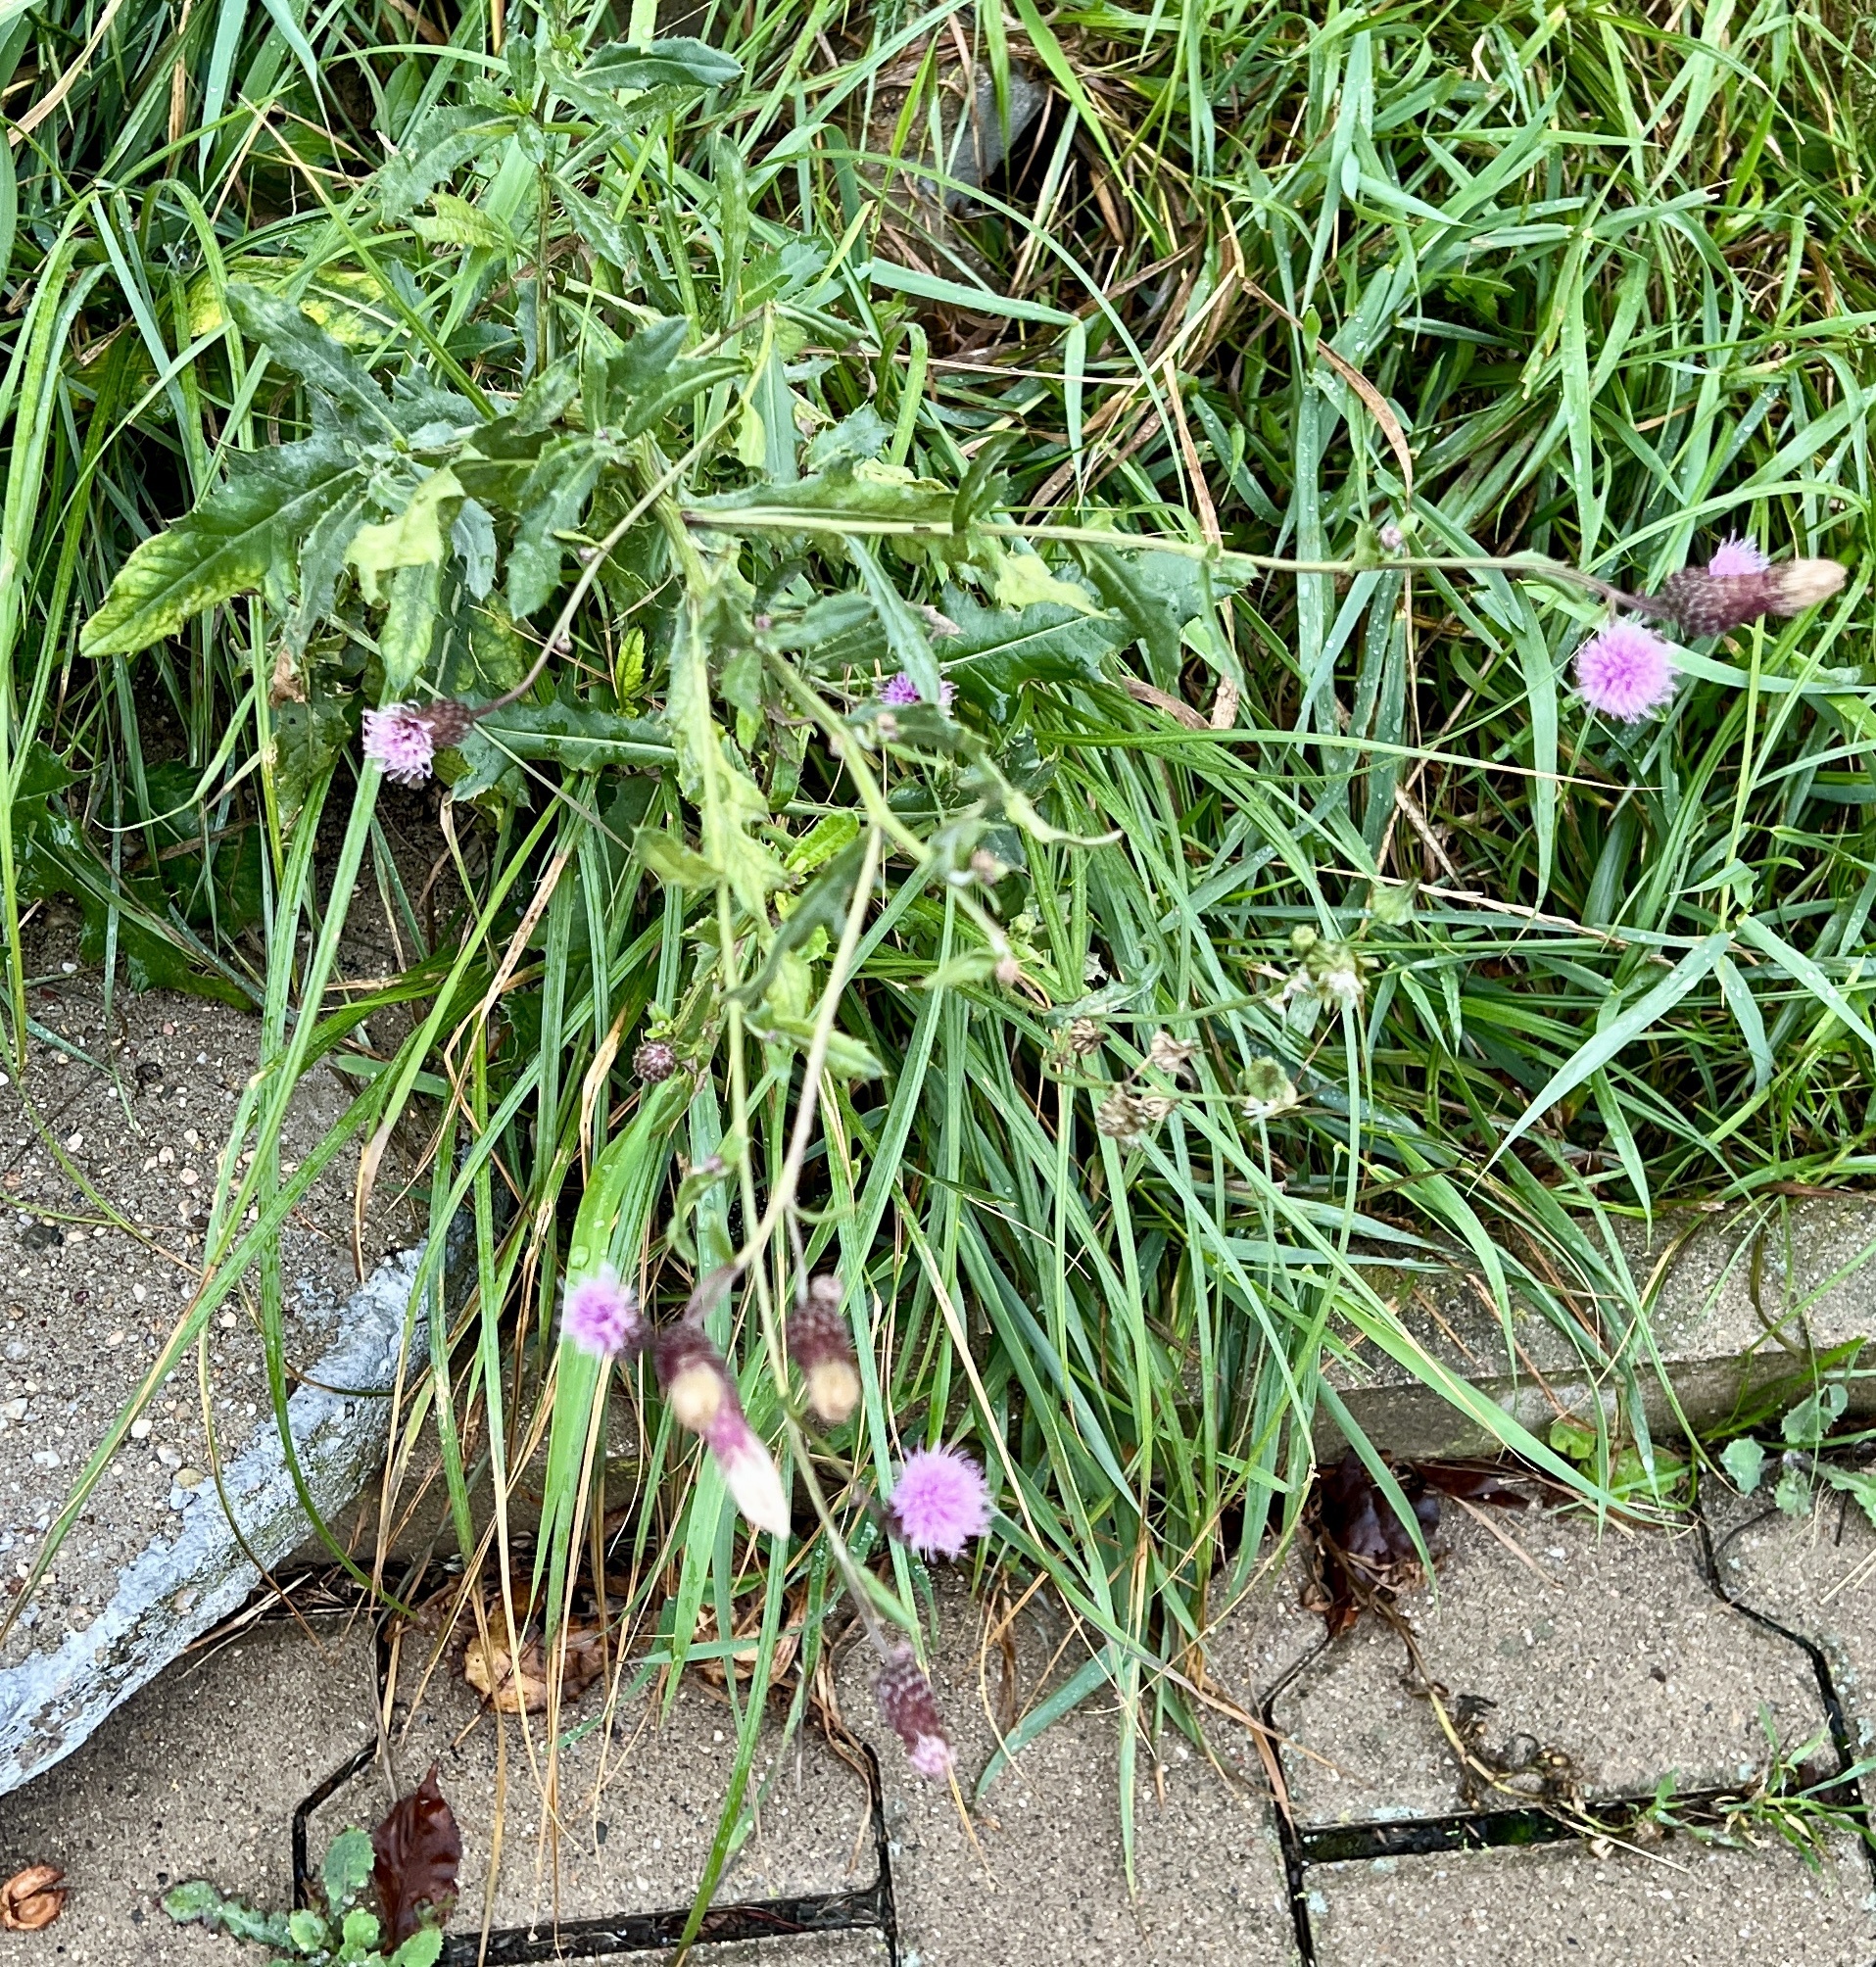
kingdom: Plantae
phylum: Tracheophyta
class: Magnoliopsida
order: Asterales
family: Asteraceae
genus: Cirsium
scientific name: Cirsium arvense
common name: Creeping thistle
